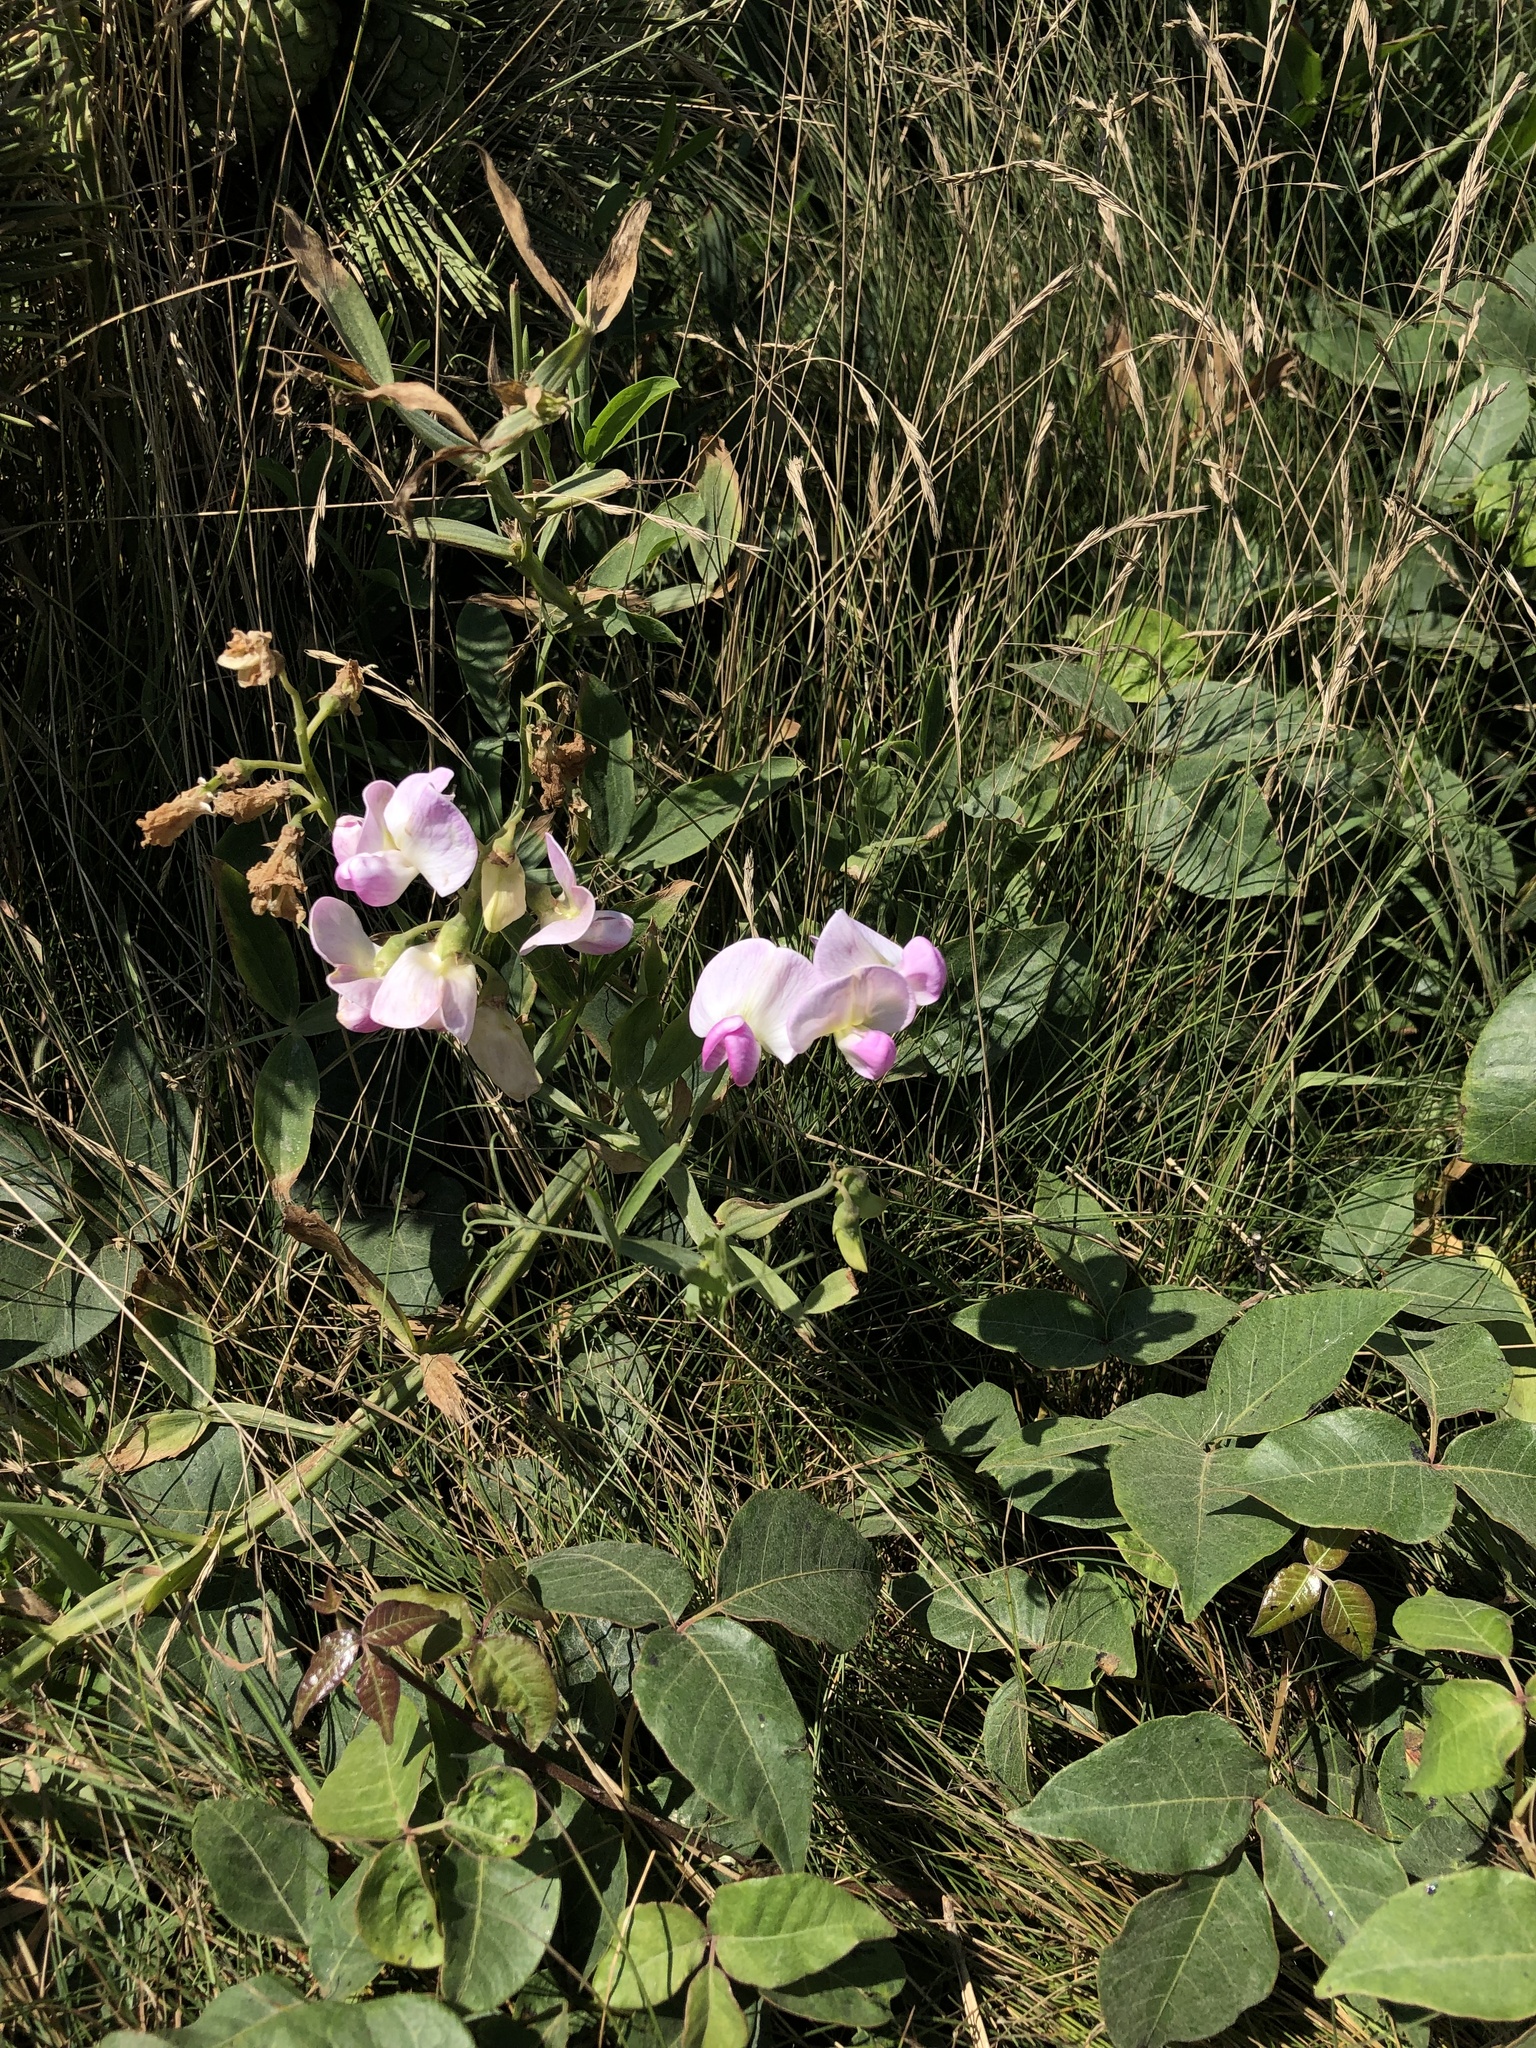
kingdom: Plantae
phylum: Tracheophyta
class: Magnoliopsida
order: Fabales
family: Fabaceae
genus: Lathyrus
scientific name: Lathyrus latifolius
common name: Perennial pea
